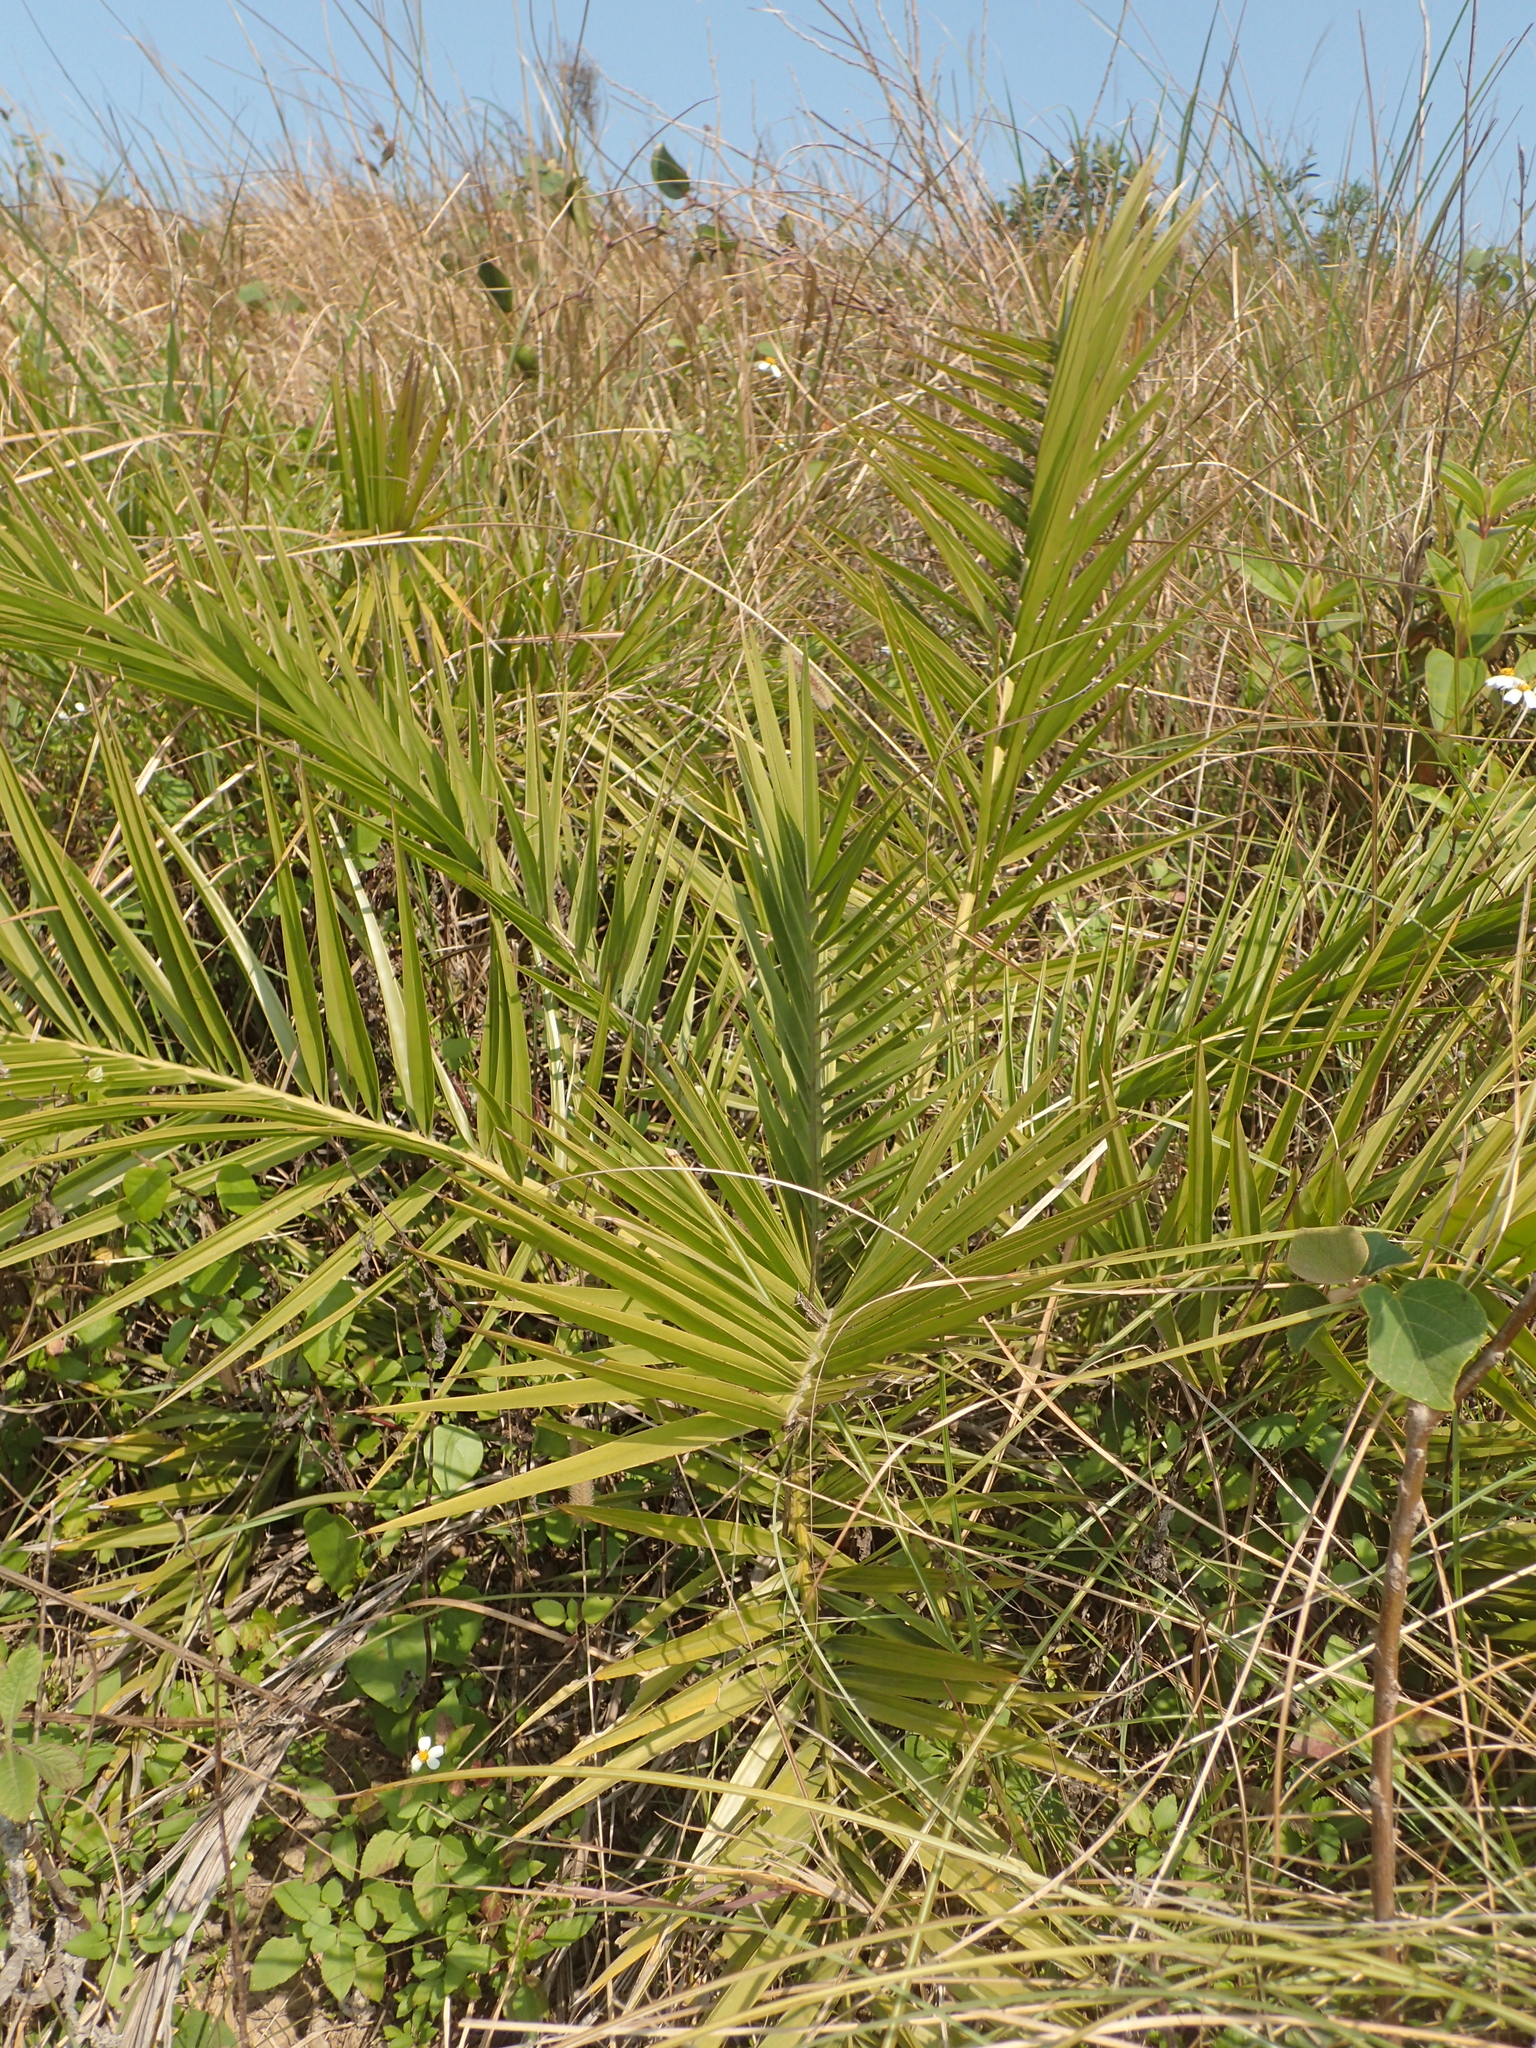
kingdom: Plantae
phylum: Tracheophyta
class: Liliopsida
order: Arecales
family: Arecaceae
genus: Phoenix
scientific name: Phoenix loureiroi
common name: Loureiro's palm
